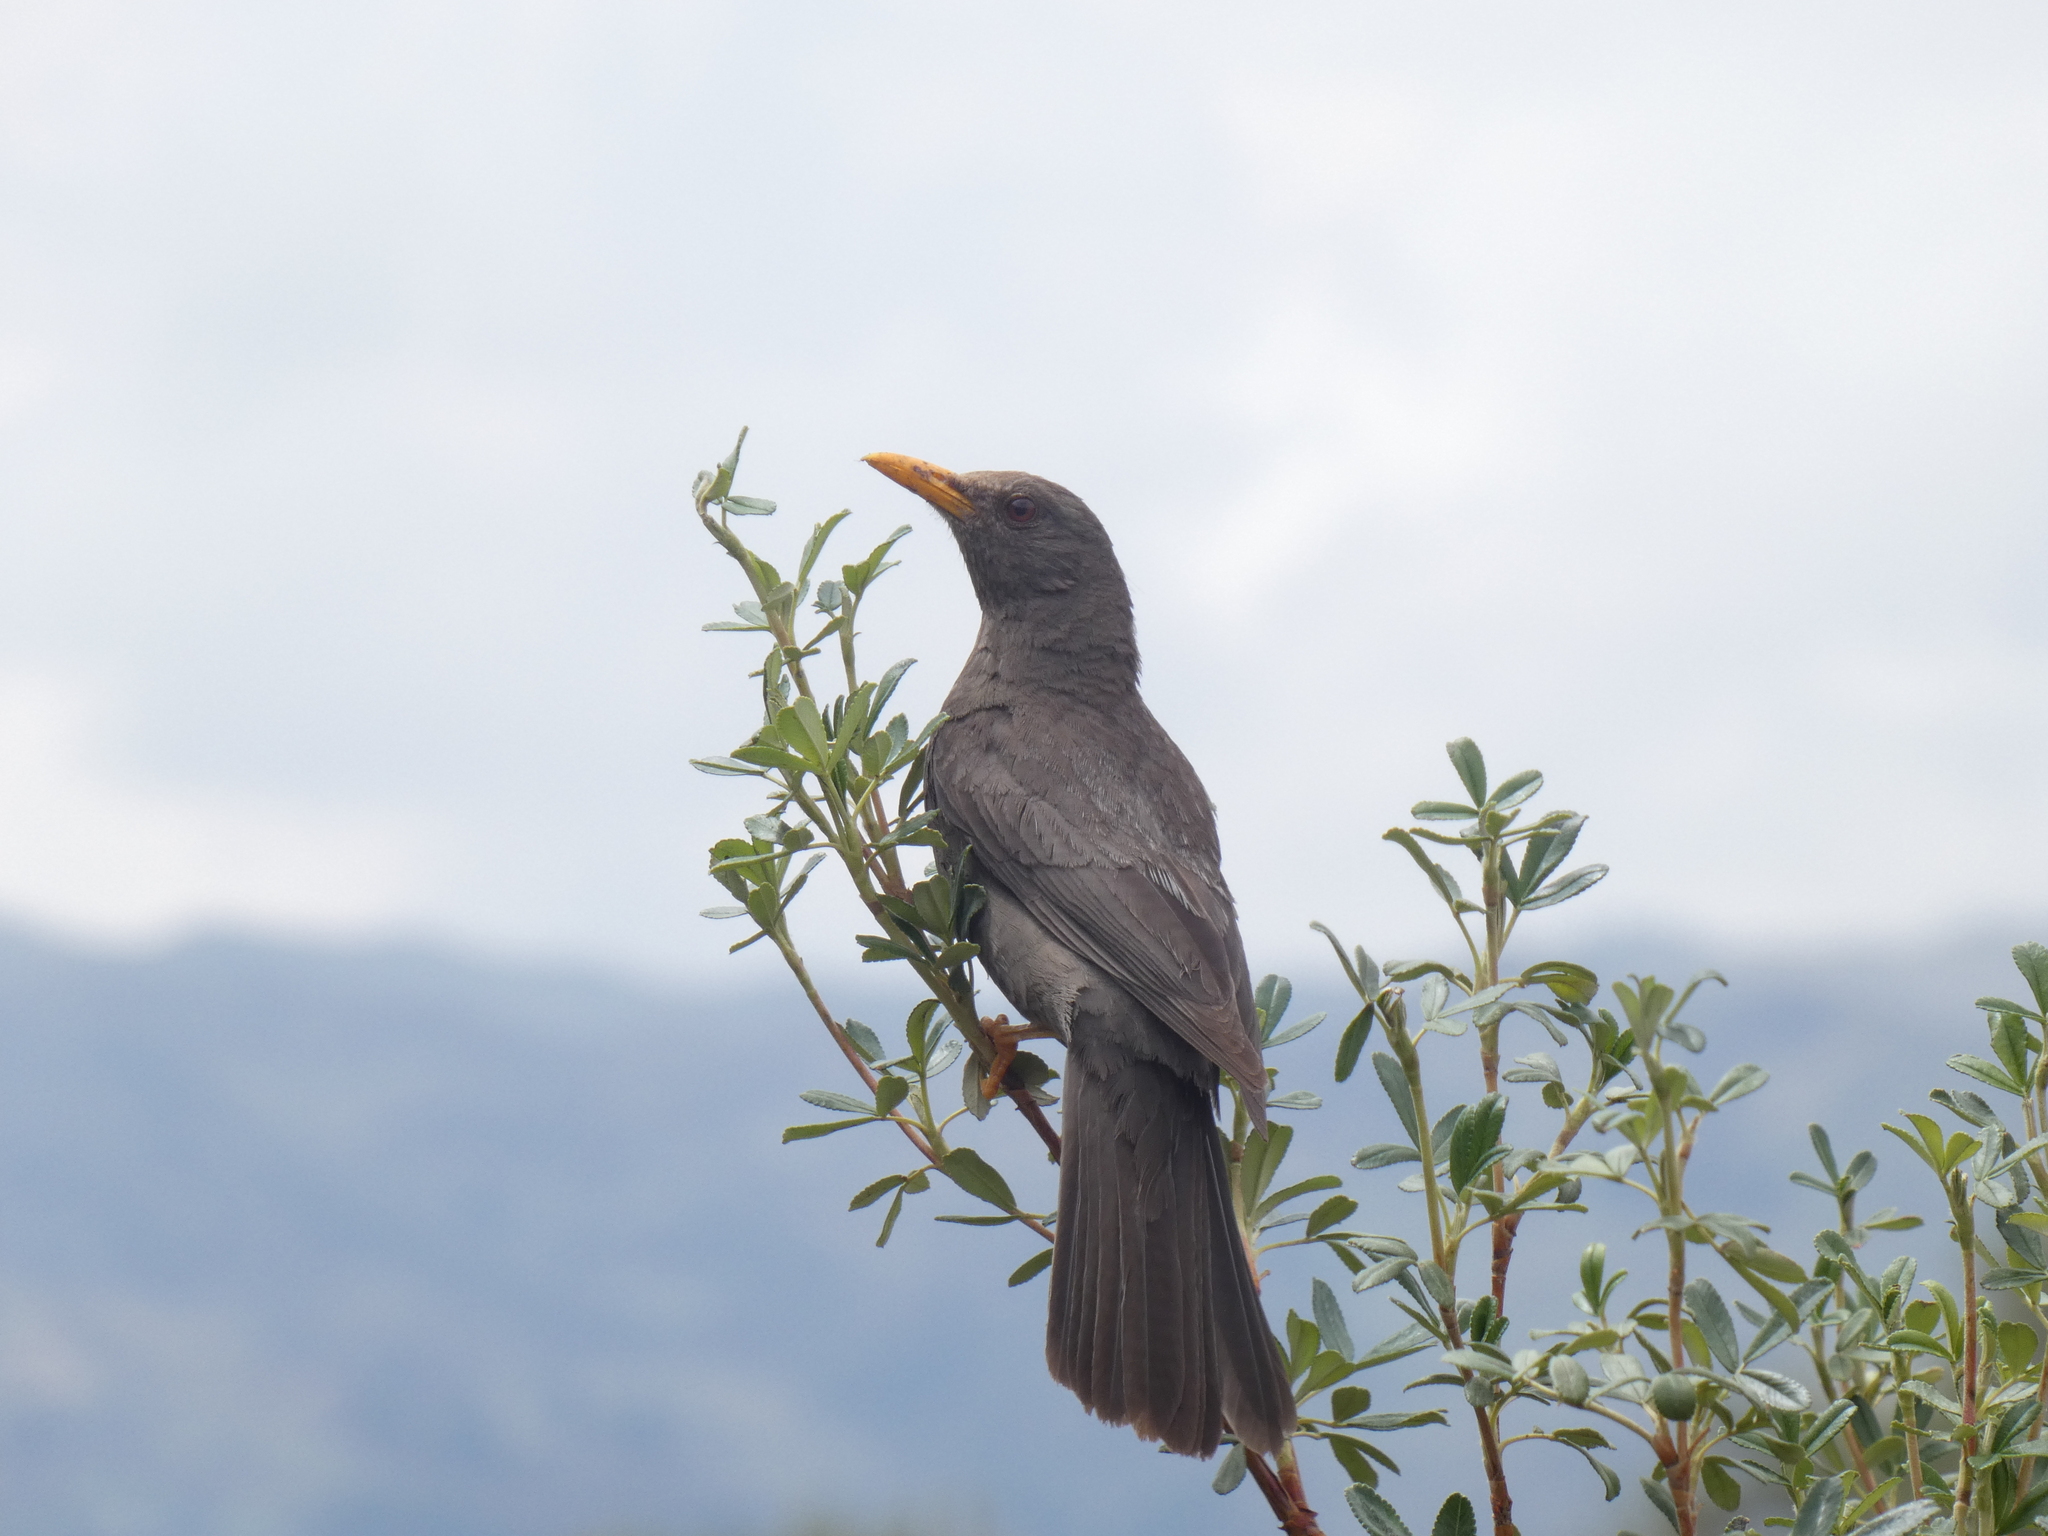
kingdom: Animalia
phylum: Chordata
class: Aves
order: Passeriformes
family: Turdidae
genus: Turdus
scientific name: Turdus chiguanco
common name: Chiguanco thrush
